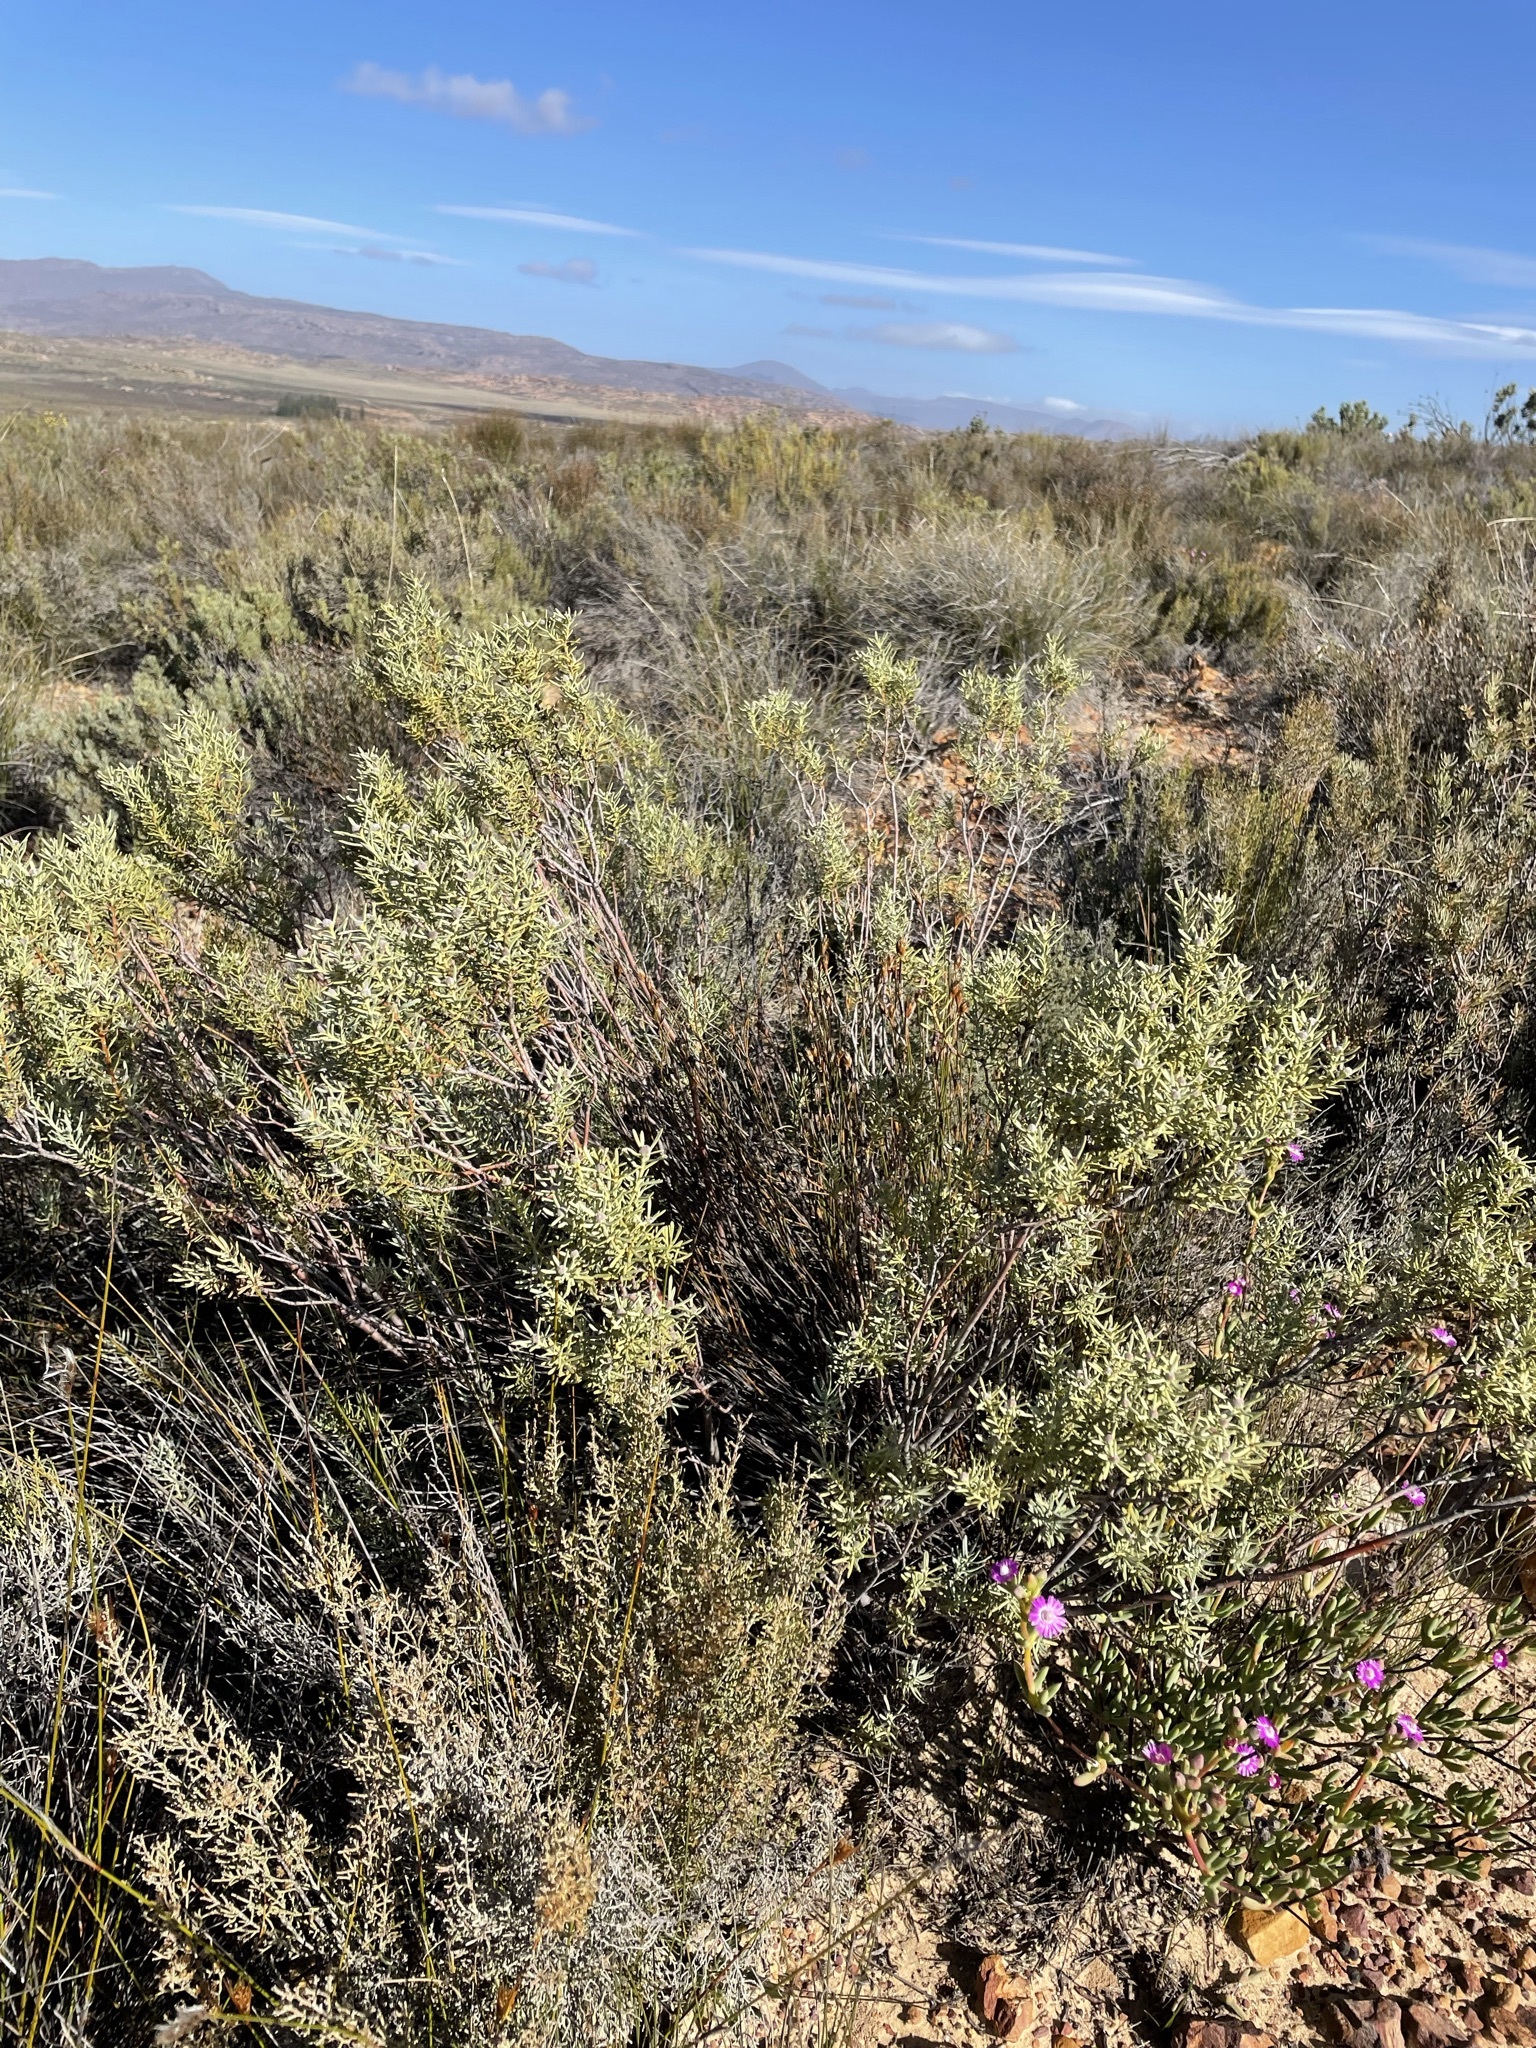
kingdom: Plantae
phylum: Tracheophyta
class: Magnoliopsida
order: Proteales
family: Proteaceae
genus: Leucadendron
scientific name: Leucadendron pubescens
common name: Grey conebush
